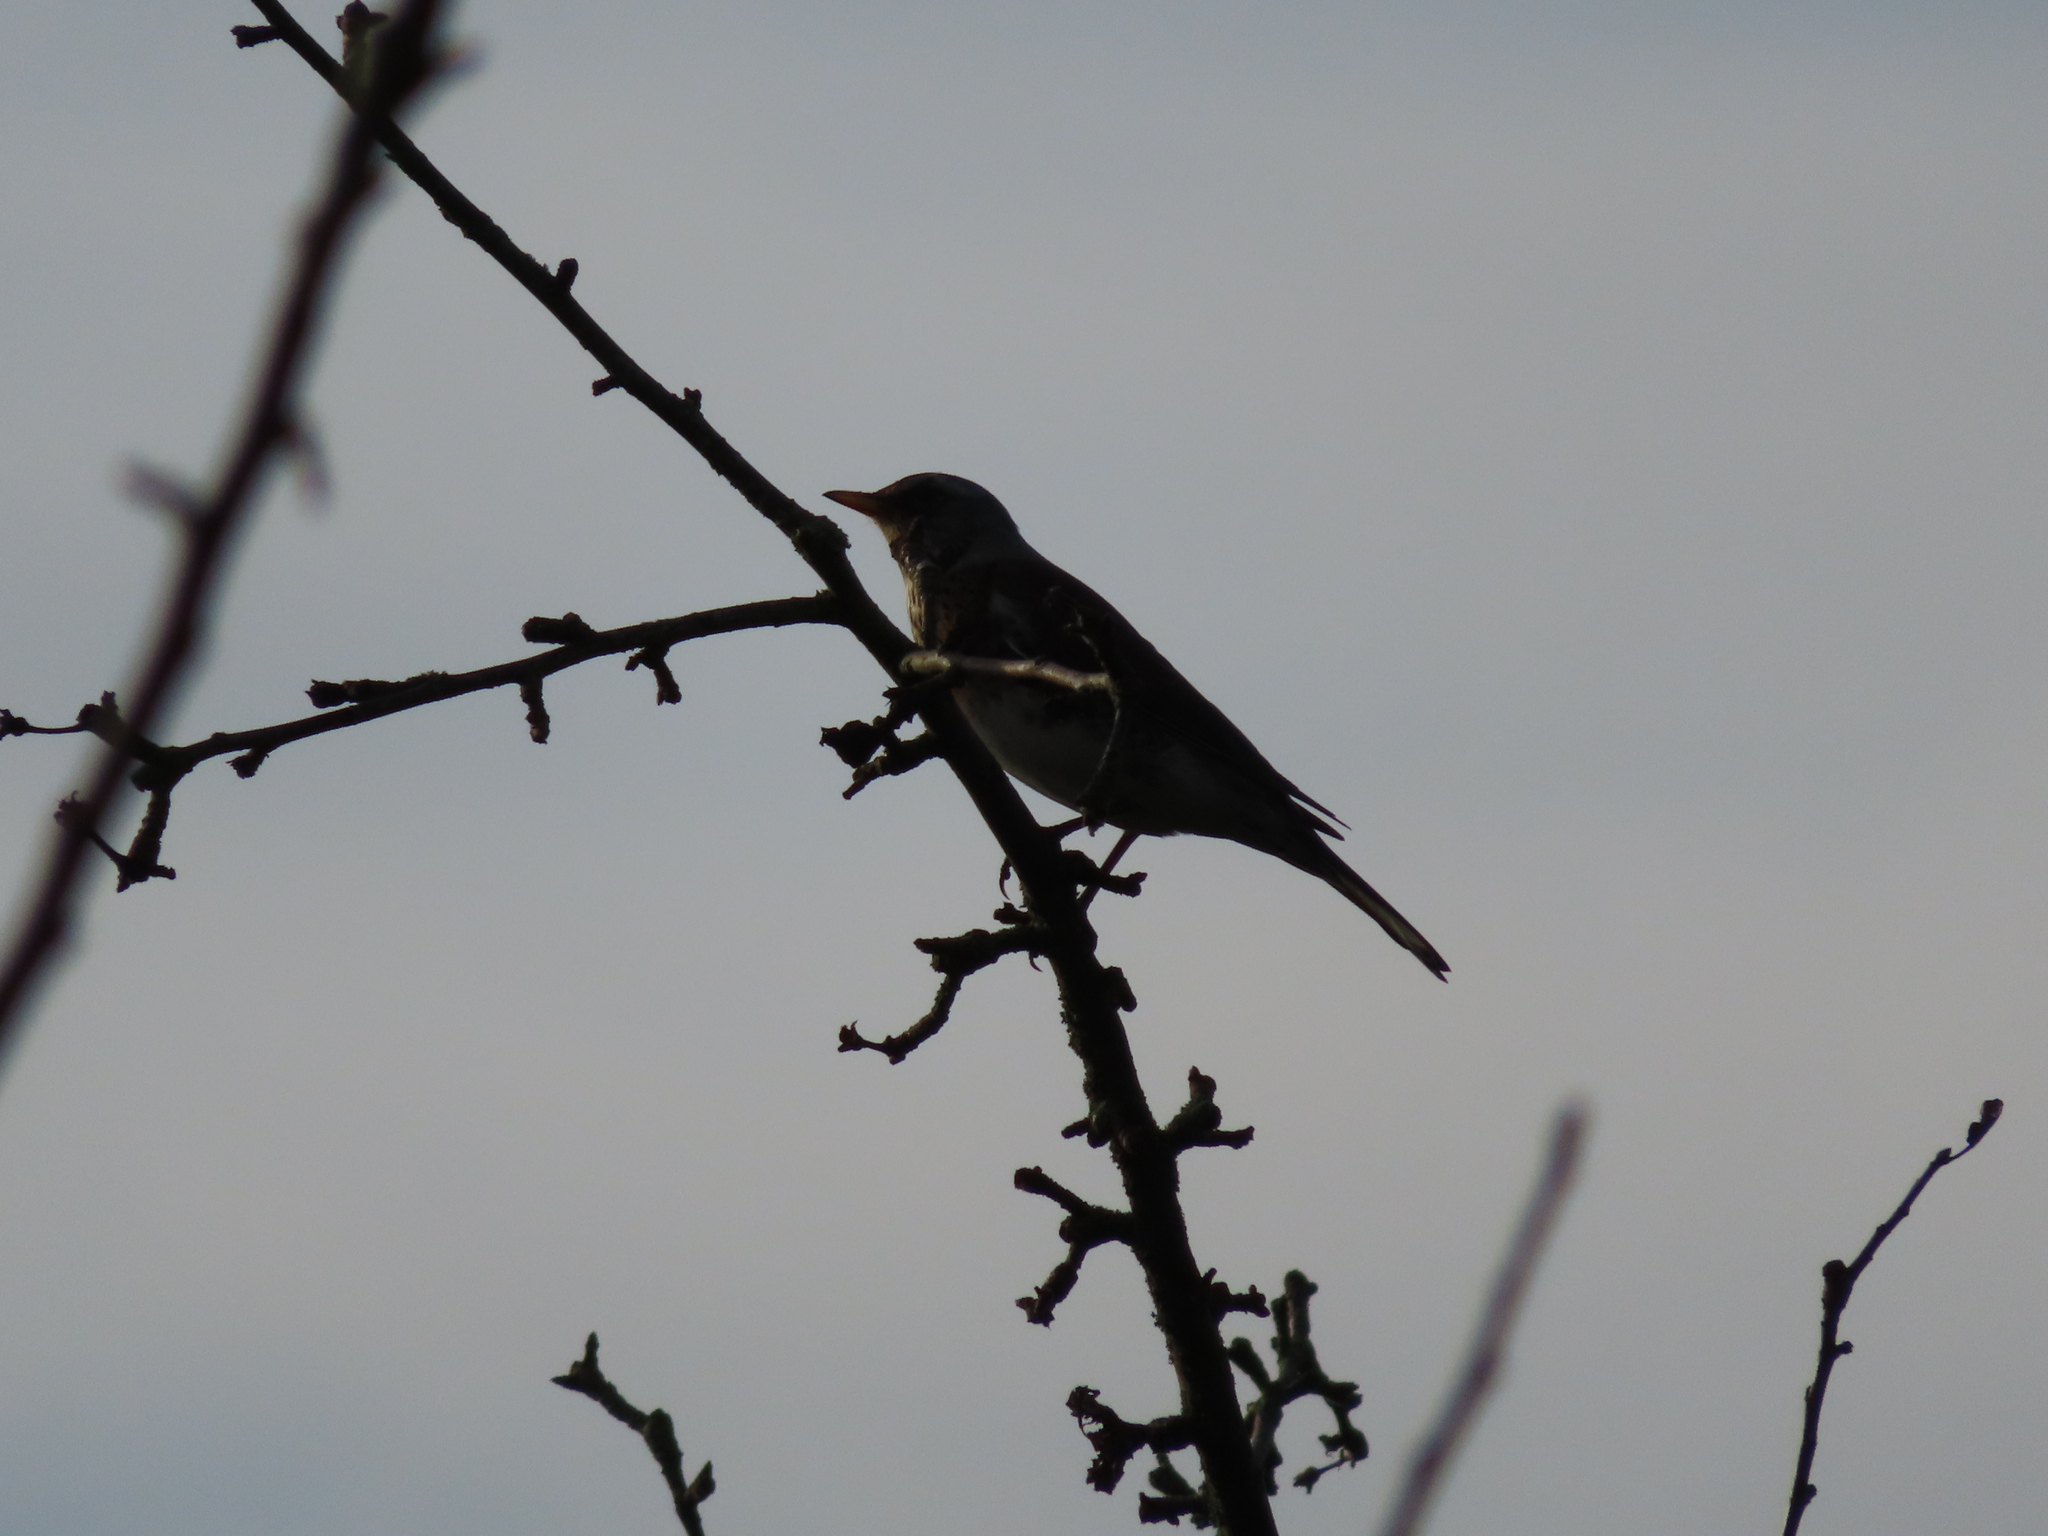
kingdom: Animalia
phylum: Chordata
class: Aves
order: Passeriformes
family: Turdidae
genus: Turdus
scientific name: Turdus pilaris
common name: Fieldfare
